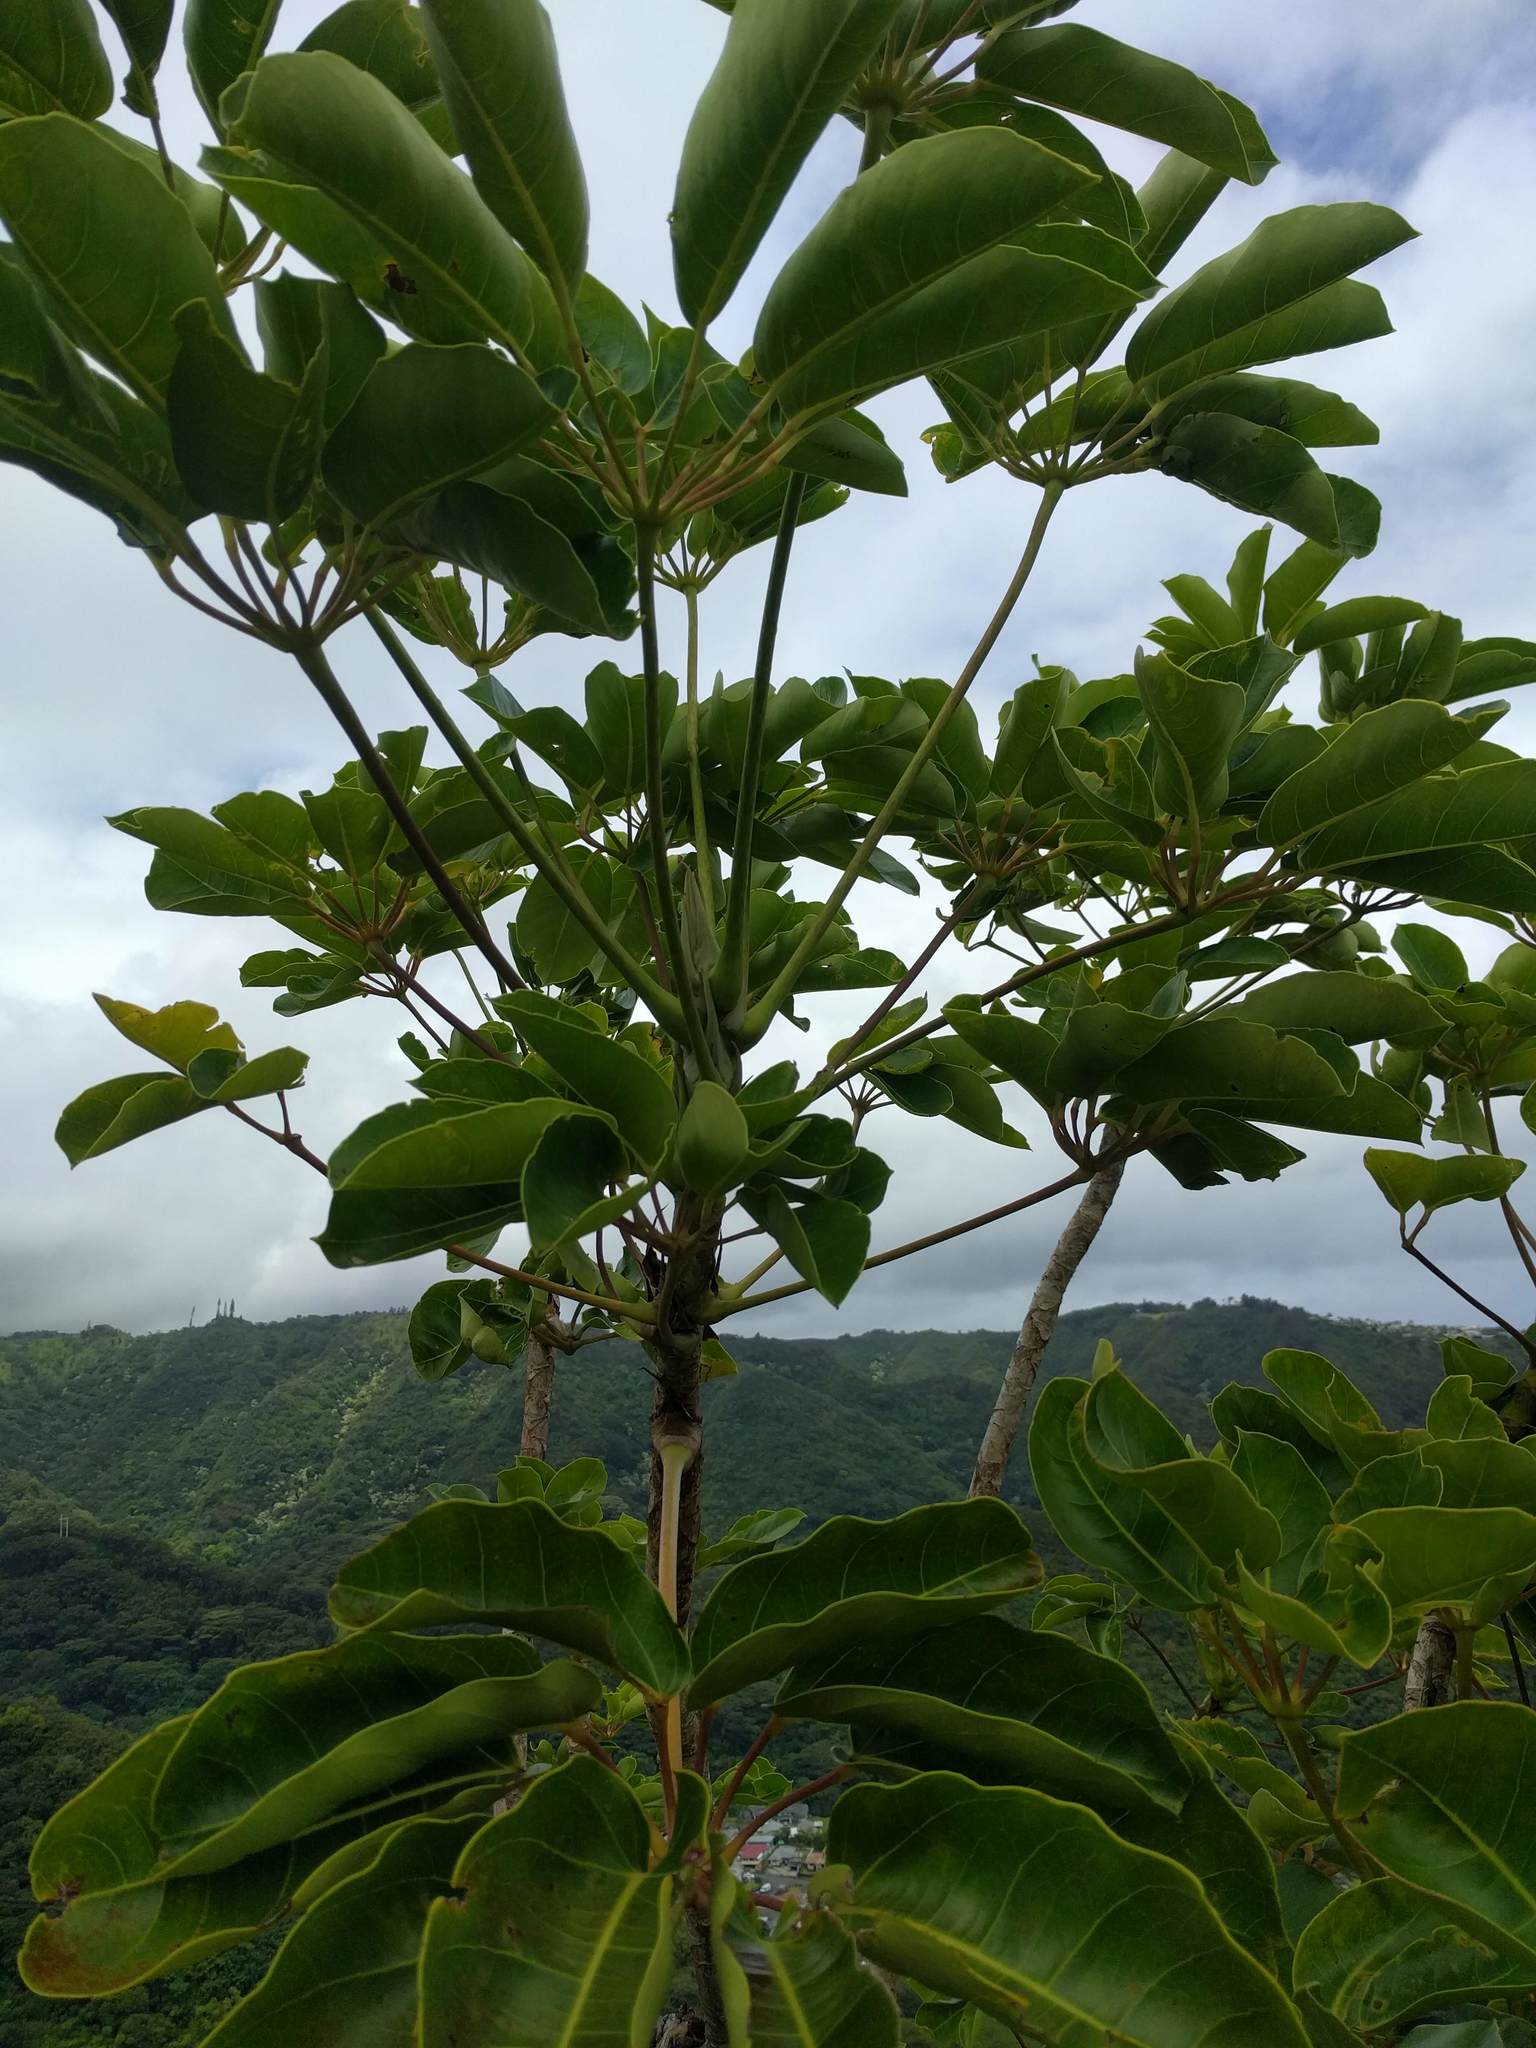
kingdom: Plantae
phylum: Tracheophyta
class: Magnoliopsida
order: Apiales
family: Araliaceae
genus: Heptapleurum
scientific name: Heptapleurum actinophyllum
